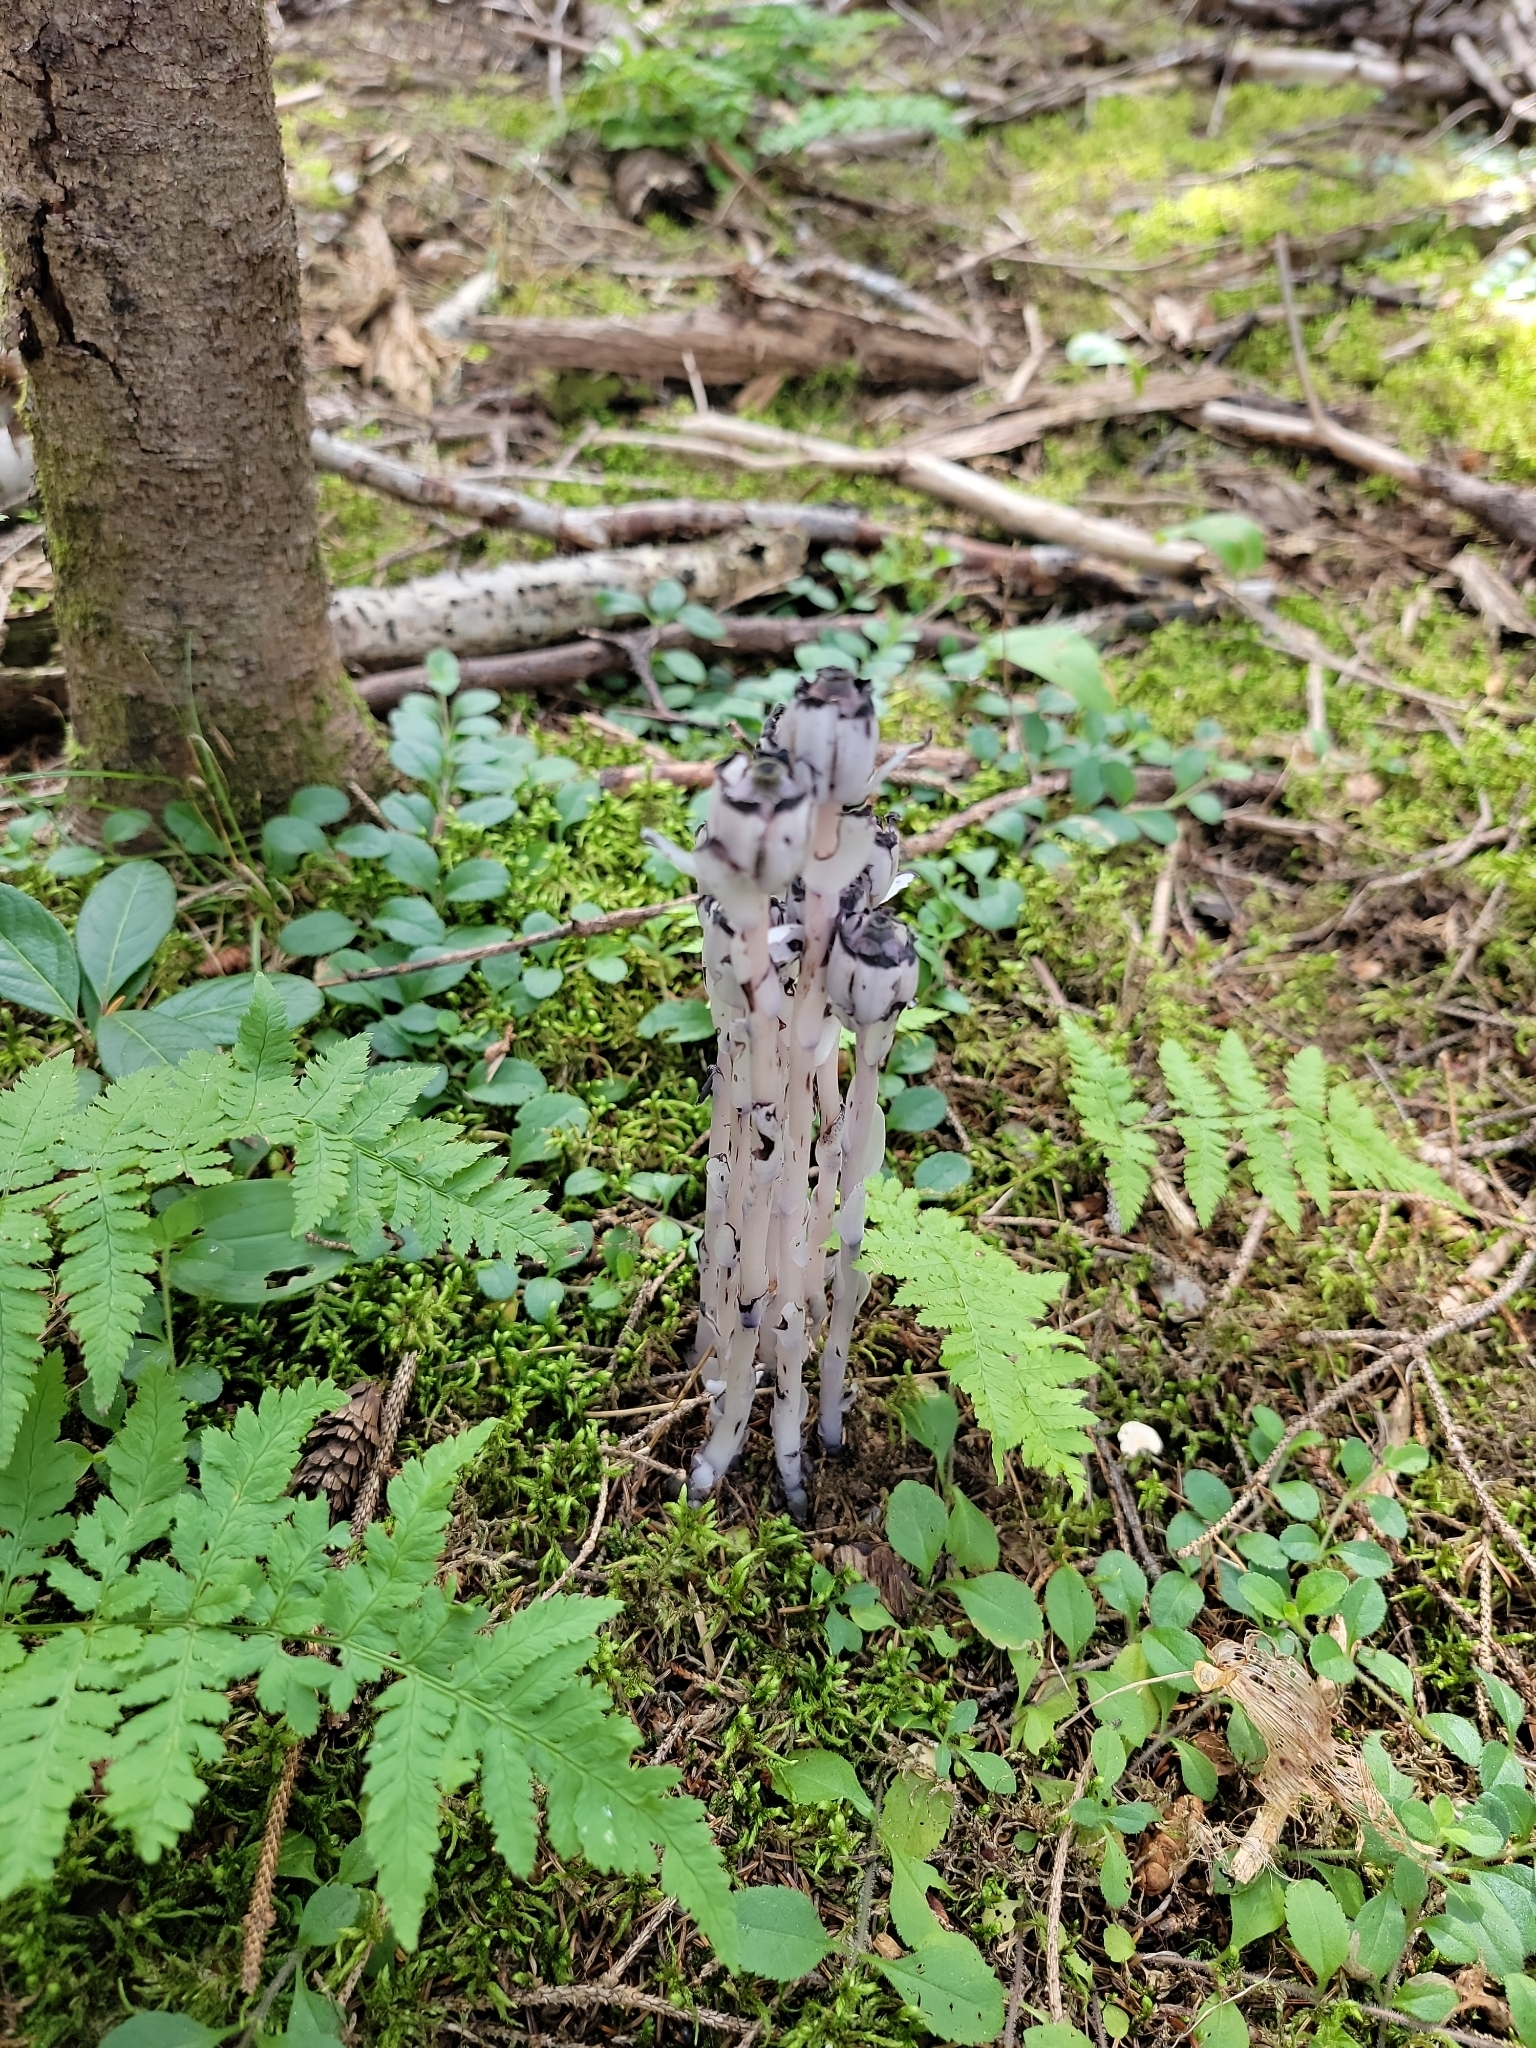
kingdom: Plantae
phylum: Tracheophyta
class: Magnoliopsida
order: Ericales
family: Ericaceae
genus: Monotropa
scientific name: Monotropa uniflora
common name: Convulsion root
